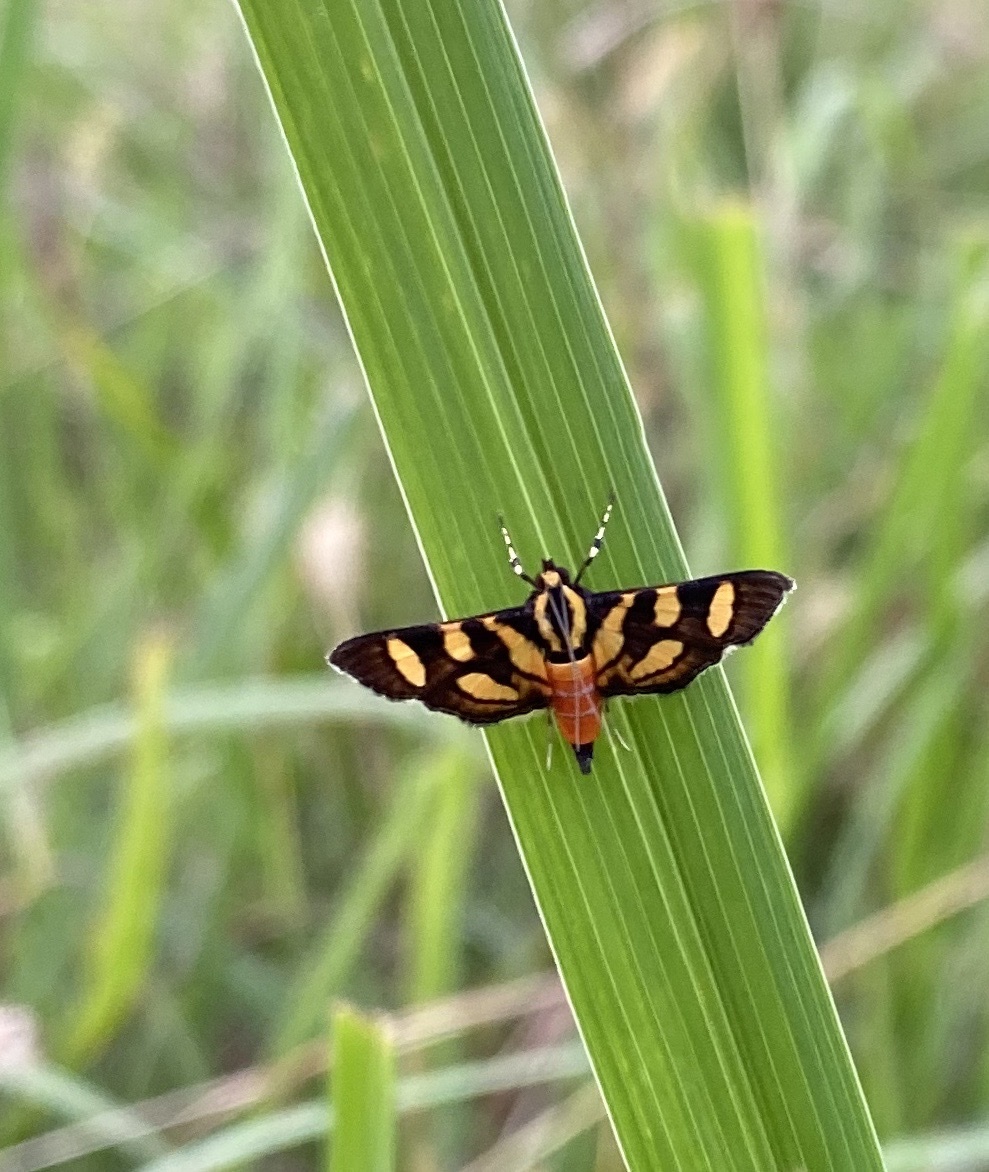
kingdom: Animalia
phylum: Arthropoda
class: Insecta
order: Lepidoptera
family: Crambidae
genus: Syngamia
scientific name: Syngamia florella
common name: Orange-spotted flower moth
